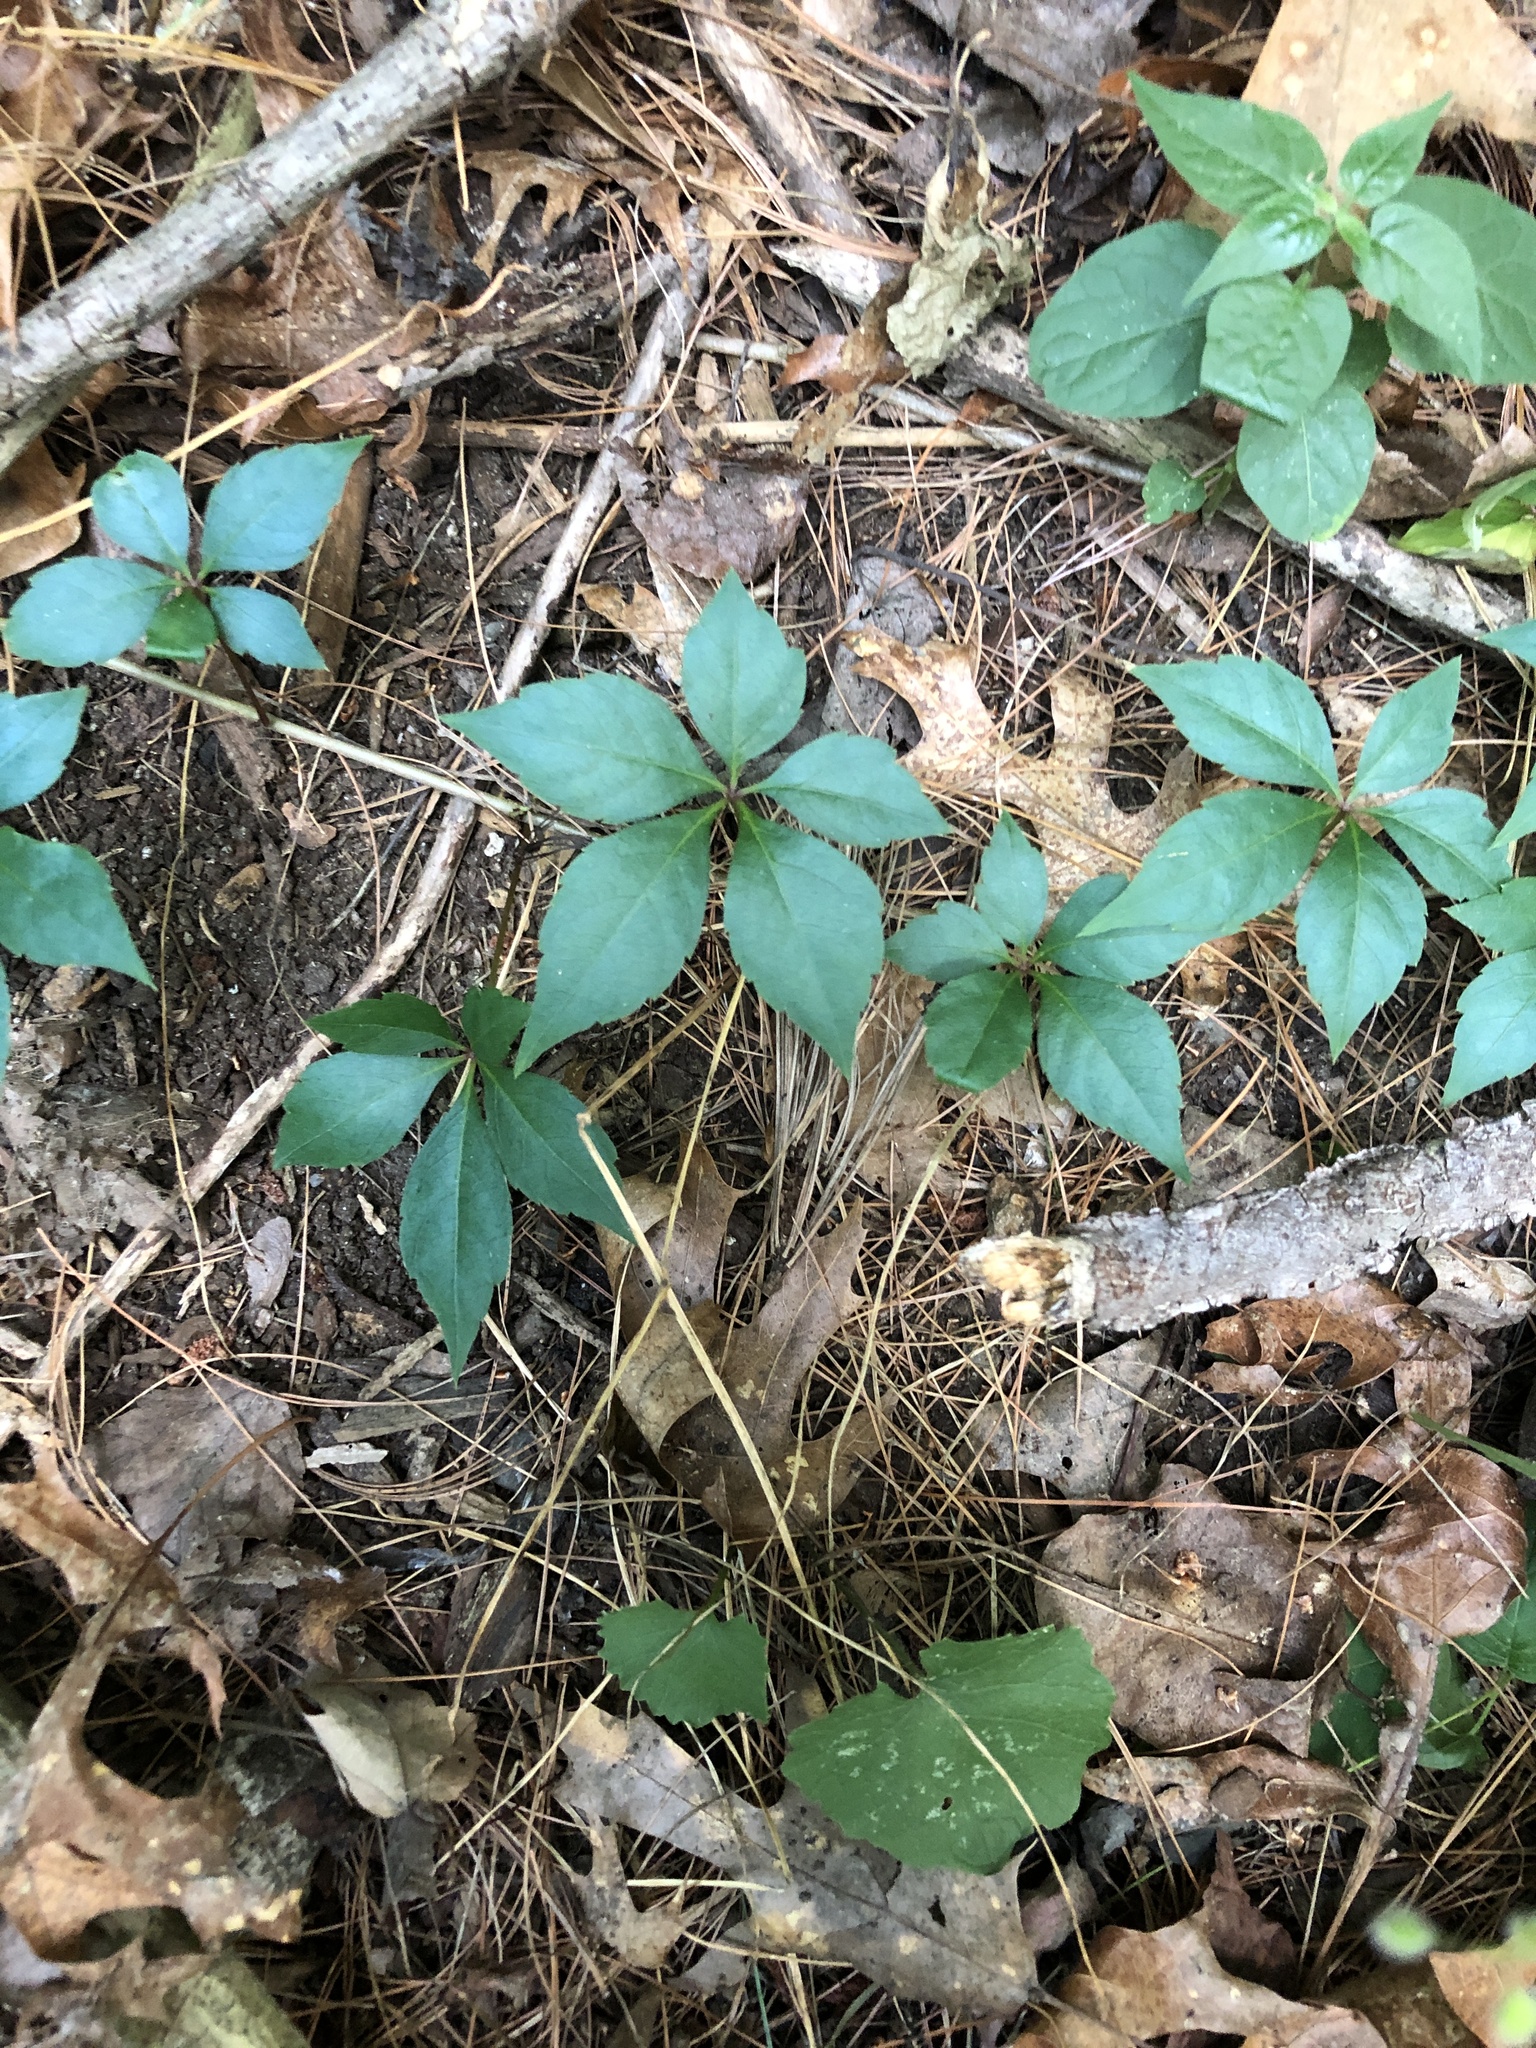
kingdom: Plantae
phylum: Tracheophyta
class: Magnoliopsida
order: Vitales
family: Vitaceae
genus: Parthenocissus
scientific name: Parthenocissus quinquefolia
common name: Virginia-creeper
